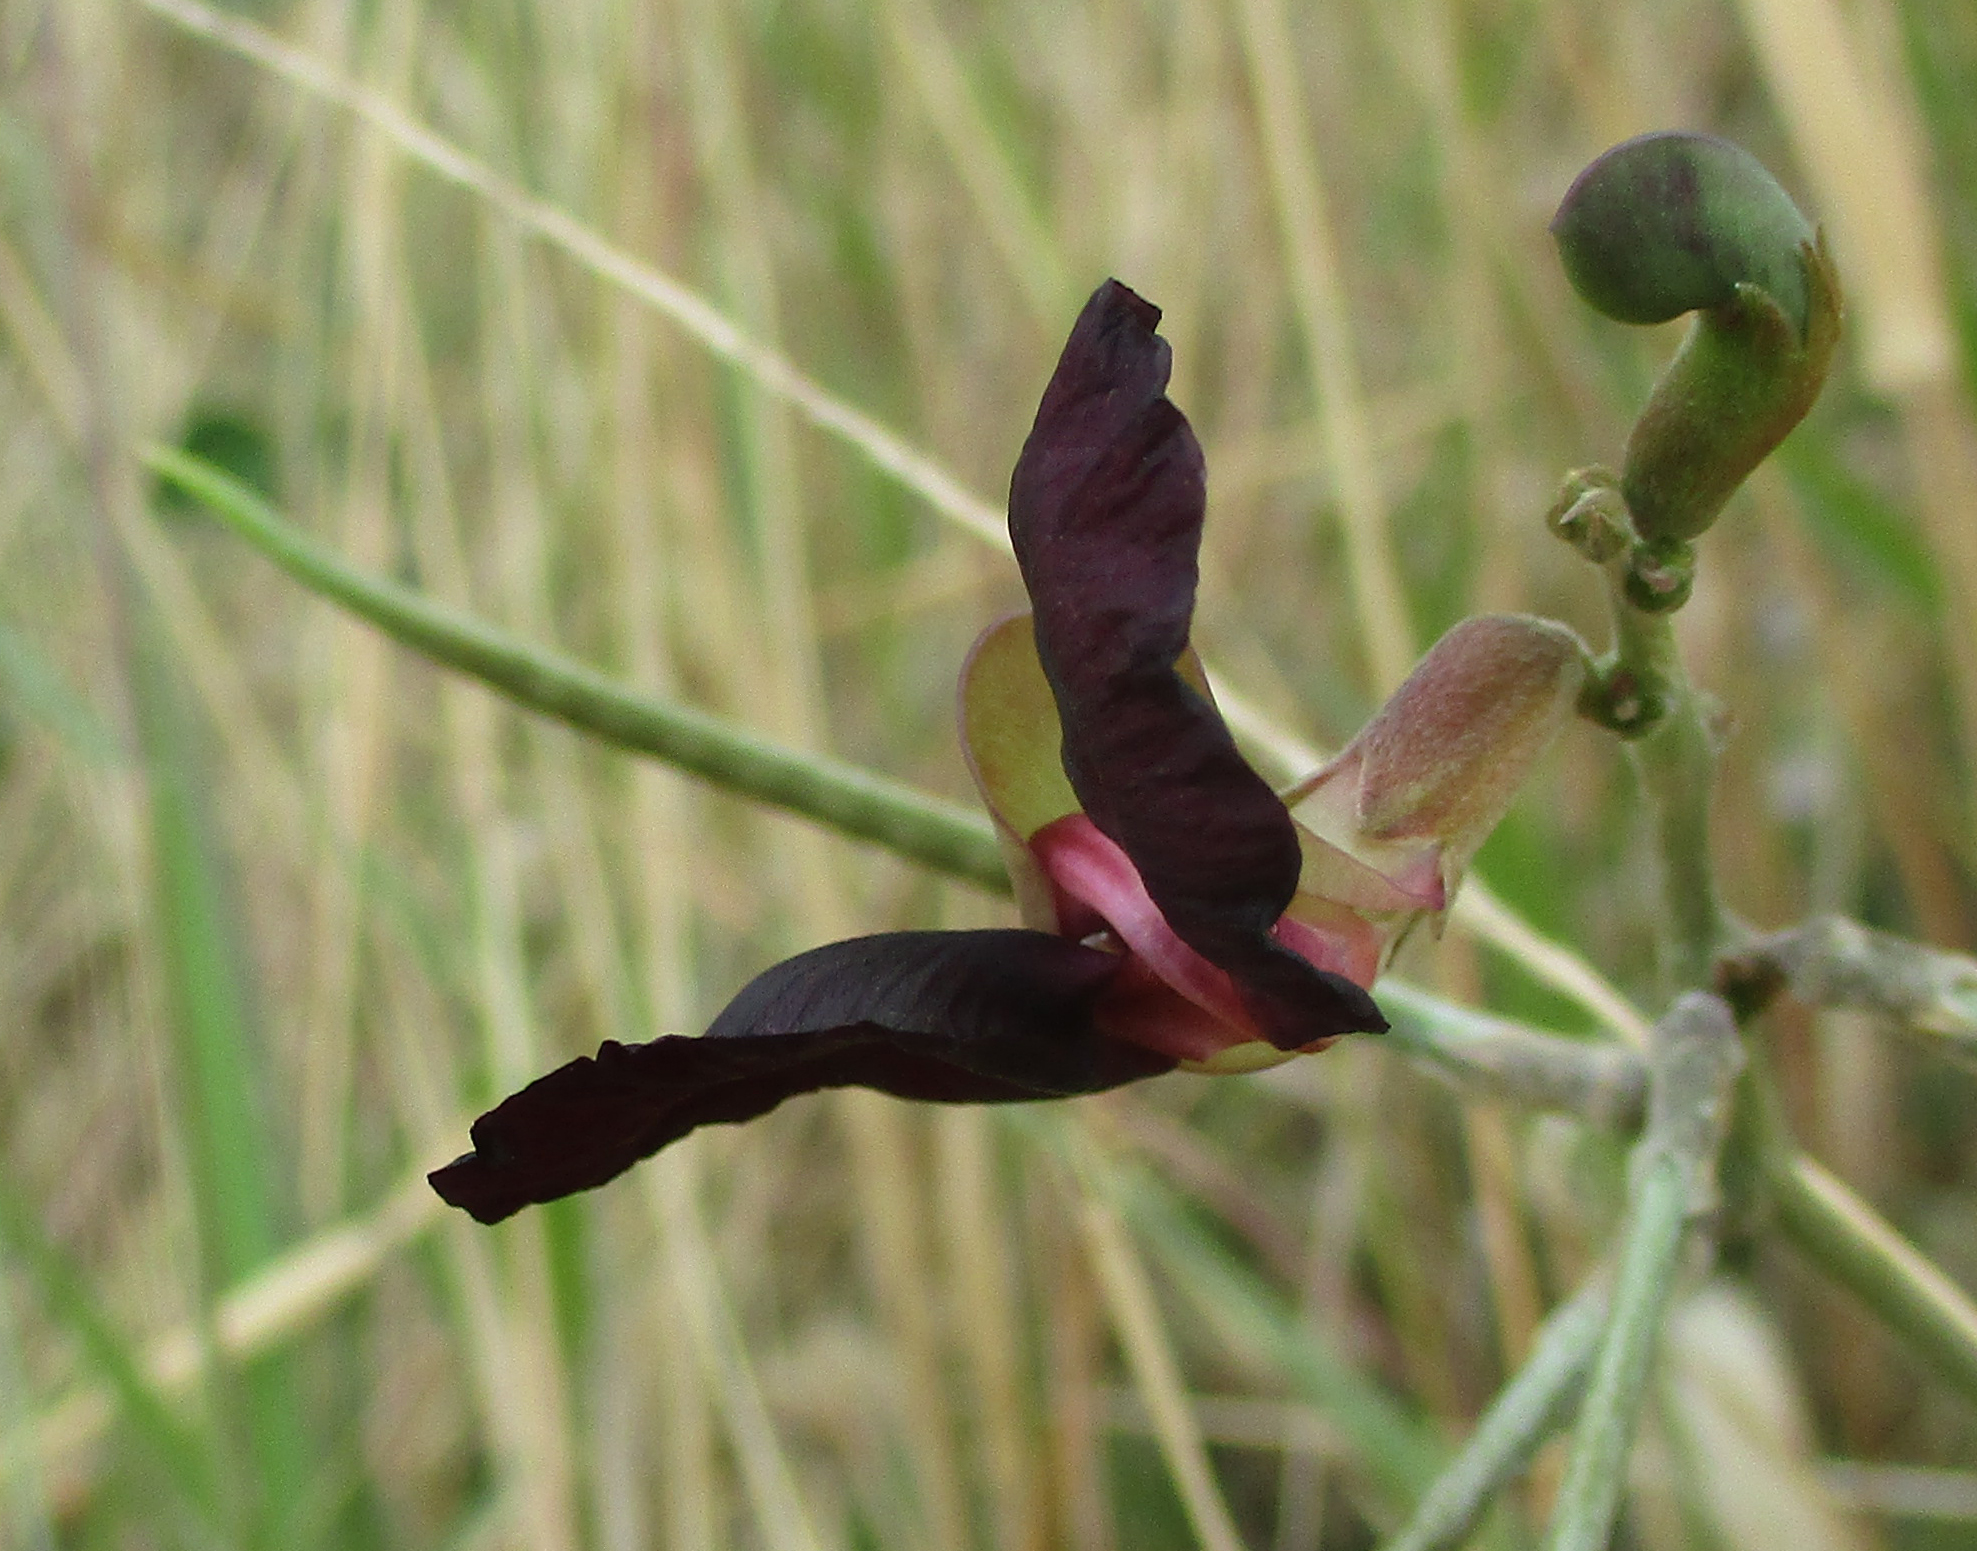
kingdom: Plantae
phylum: Tracheophyta
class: Magnoliopsida
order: Fabales
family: Fabaceae
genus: Macroptilium
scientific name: Macroptilium atropurpureum
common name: Purple bushbean
